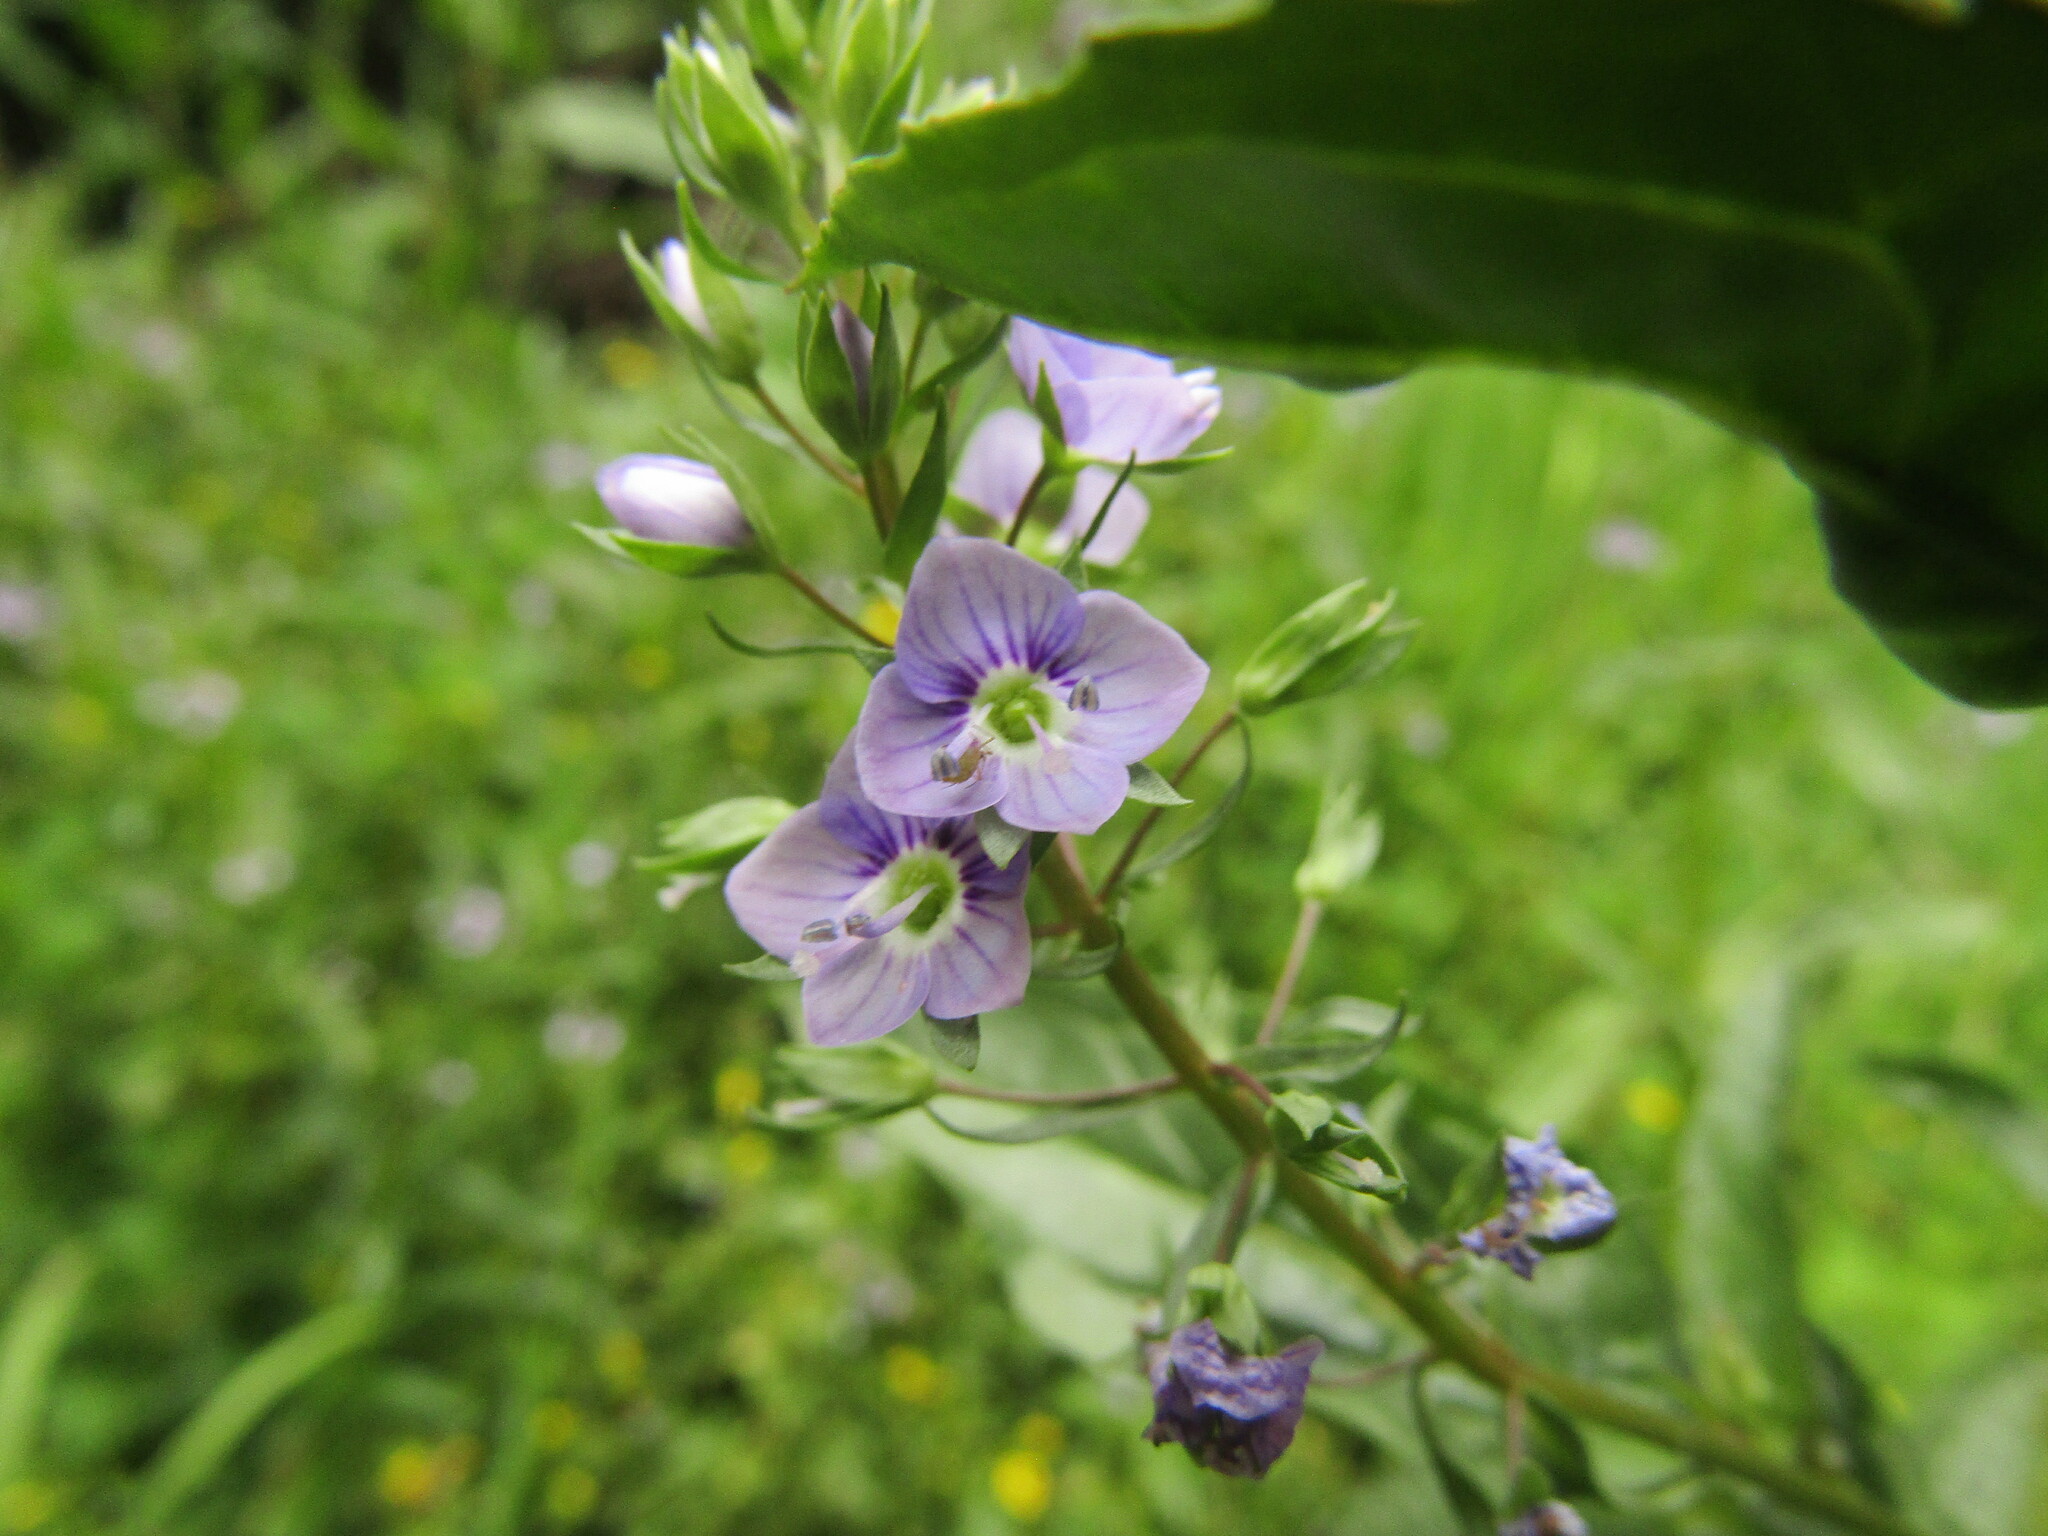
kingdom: Plantae
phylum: Tracheophyta
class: Magnoliopsida
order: Lamiales
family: Plantaginaceae
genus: Veronica
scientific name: Veronica anagallis-aquatica
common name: Water speedwell
